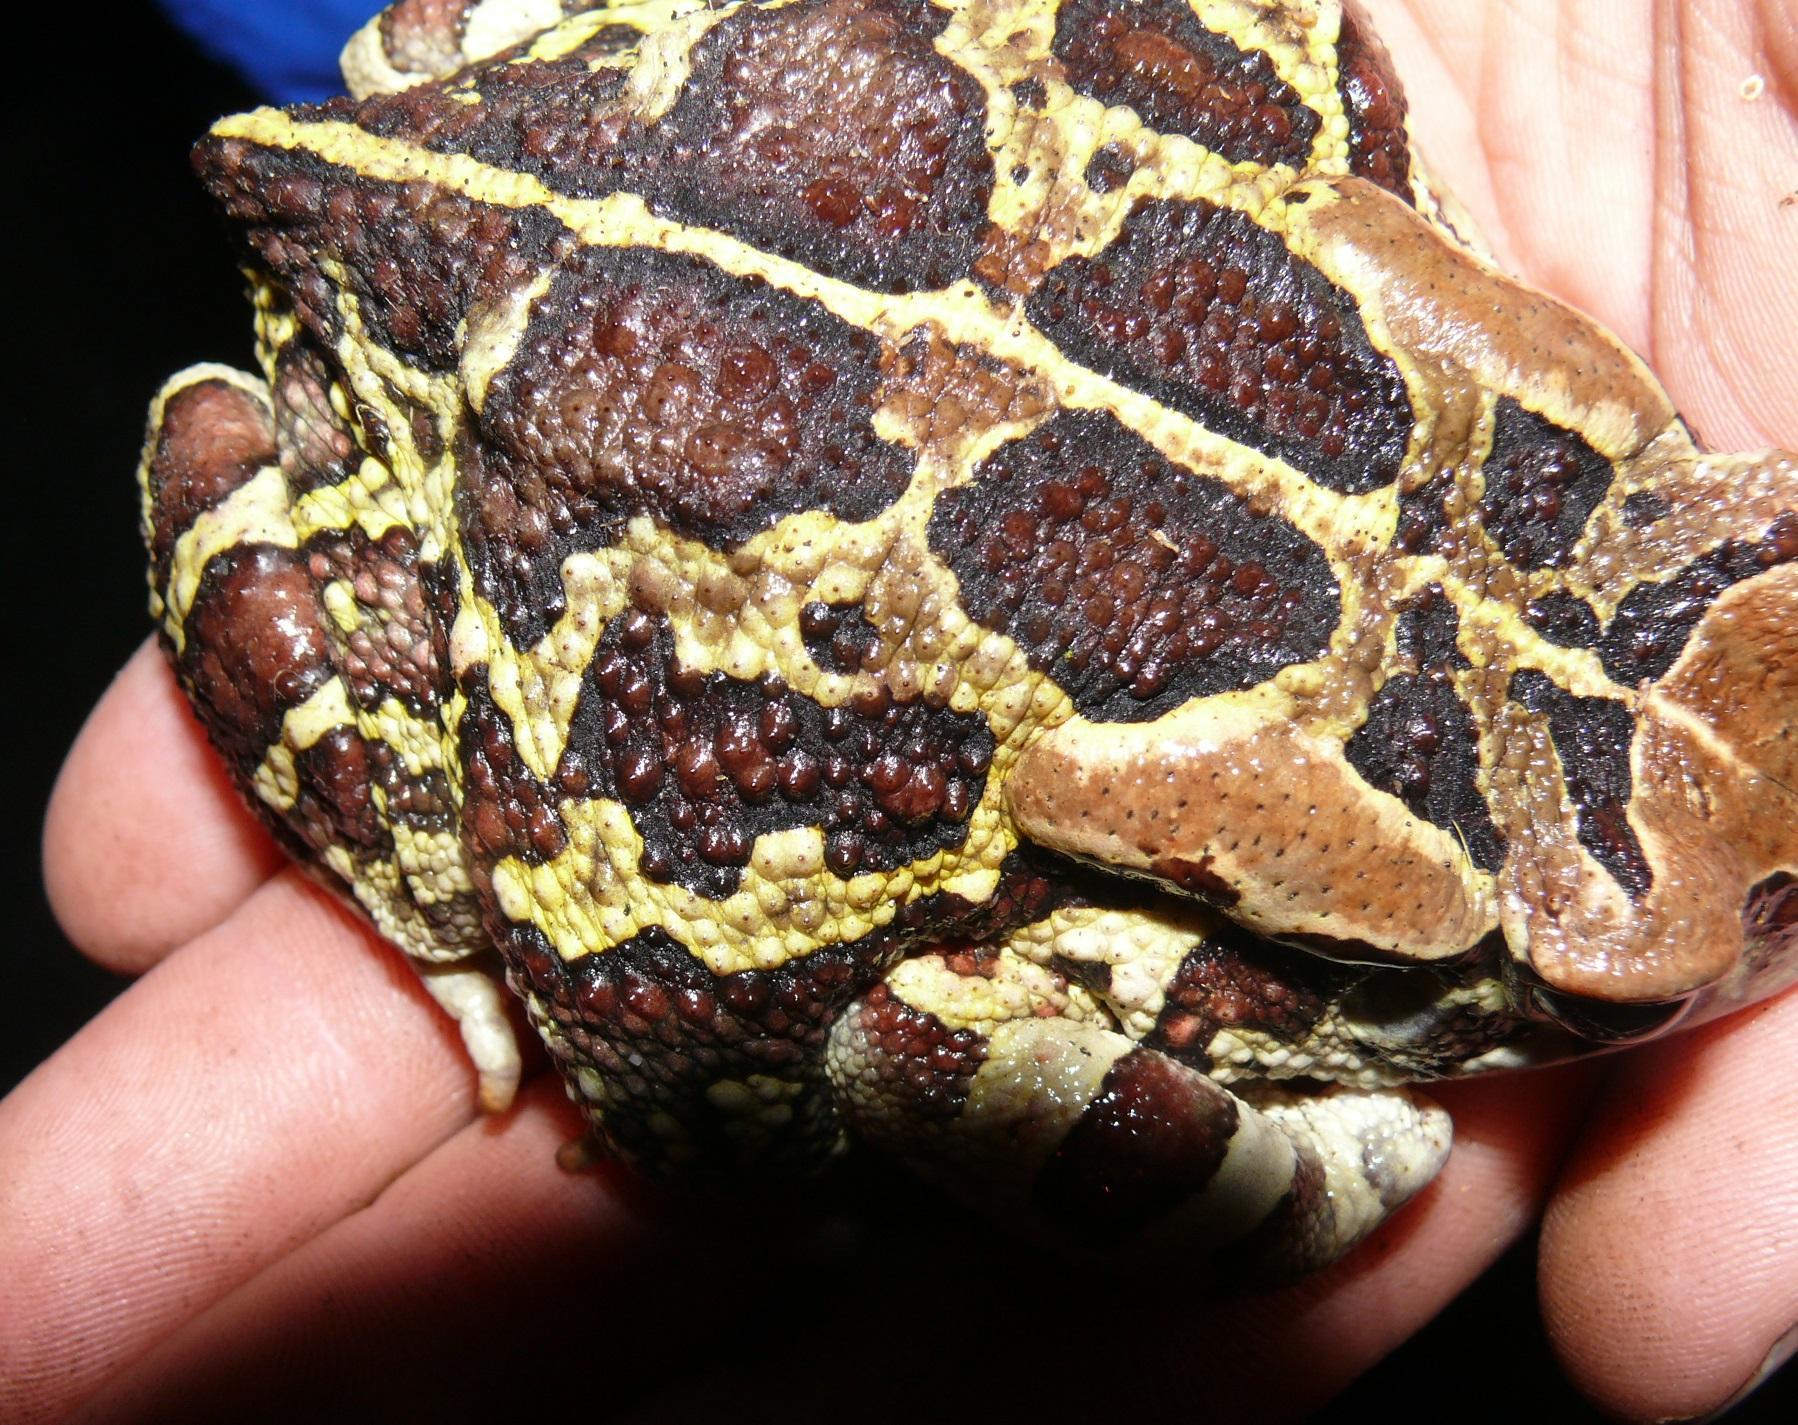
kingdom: Animalia
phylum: Chordata
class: Amphibia
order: Anura
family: Bufonidae
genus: Sclerophrys
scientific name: Sclerophrys pantherina
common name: Panther toad
